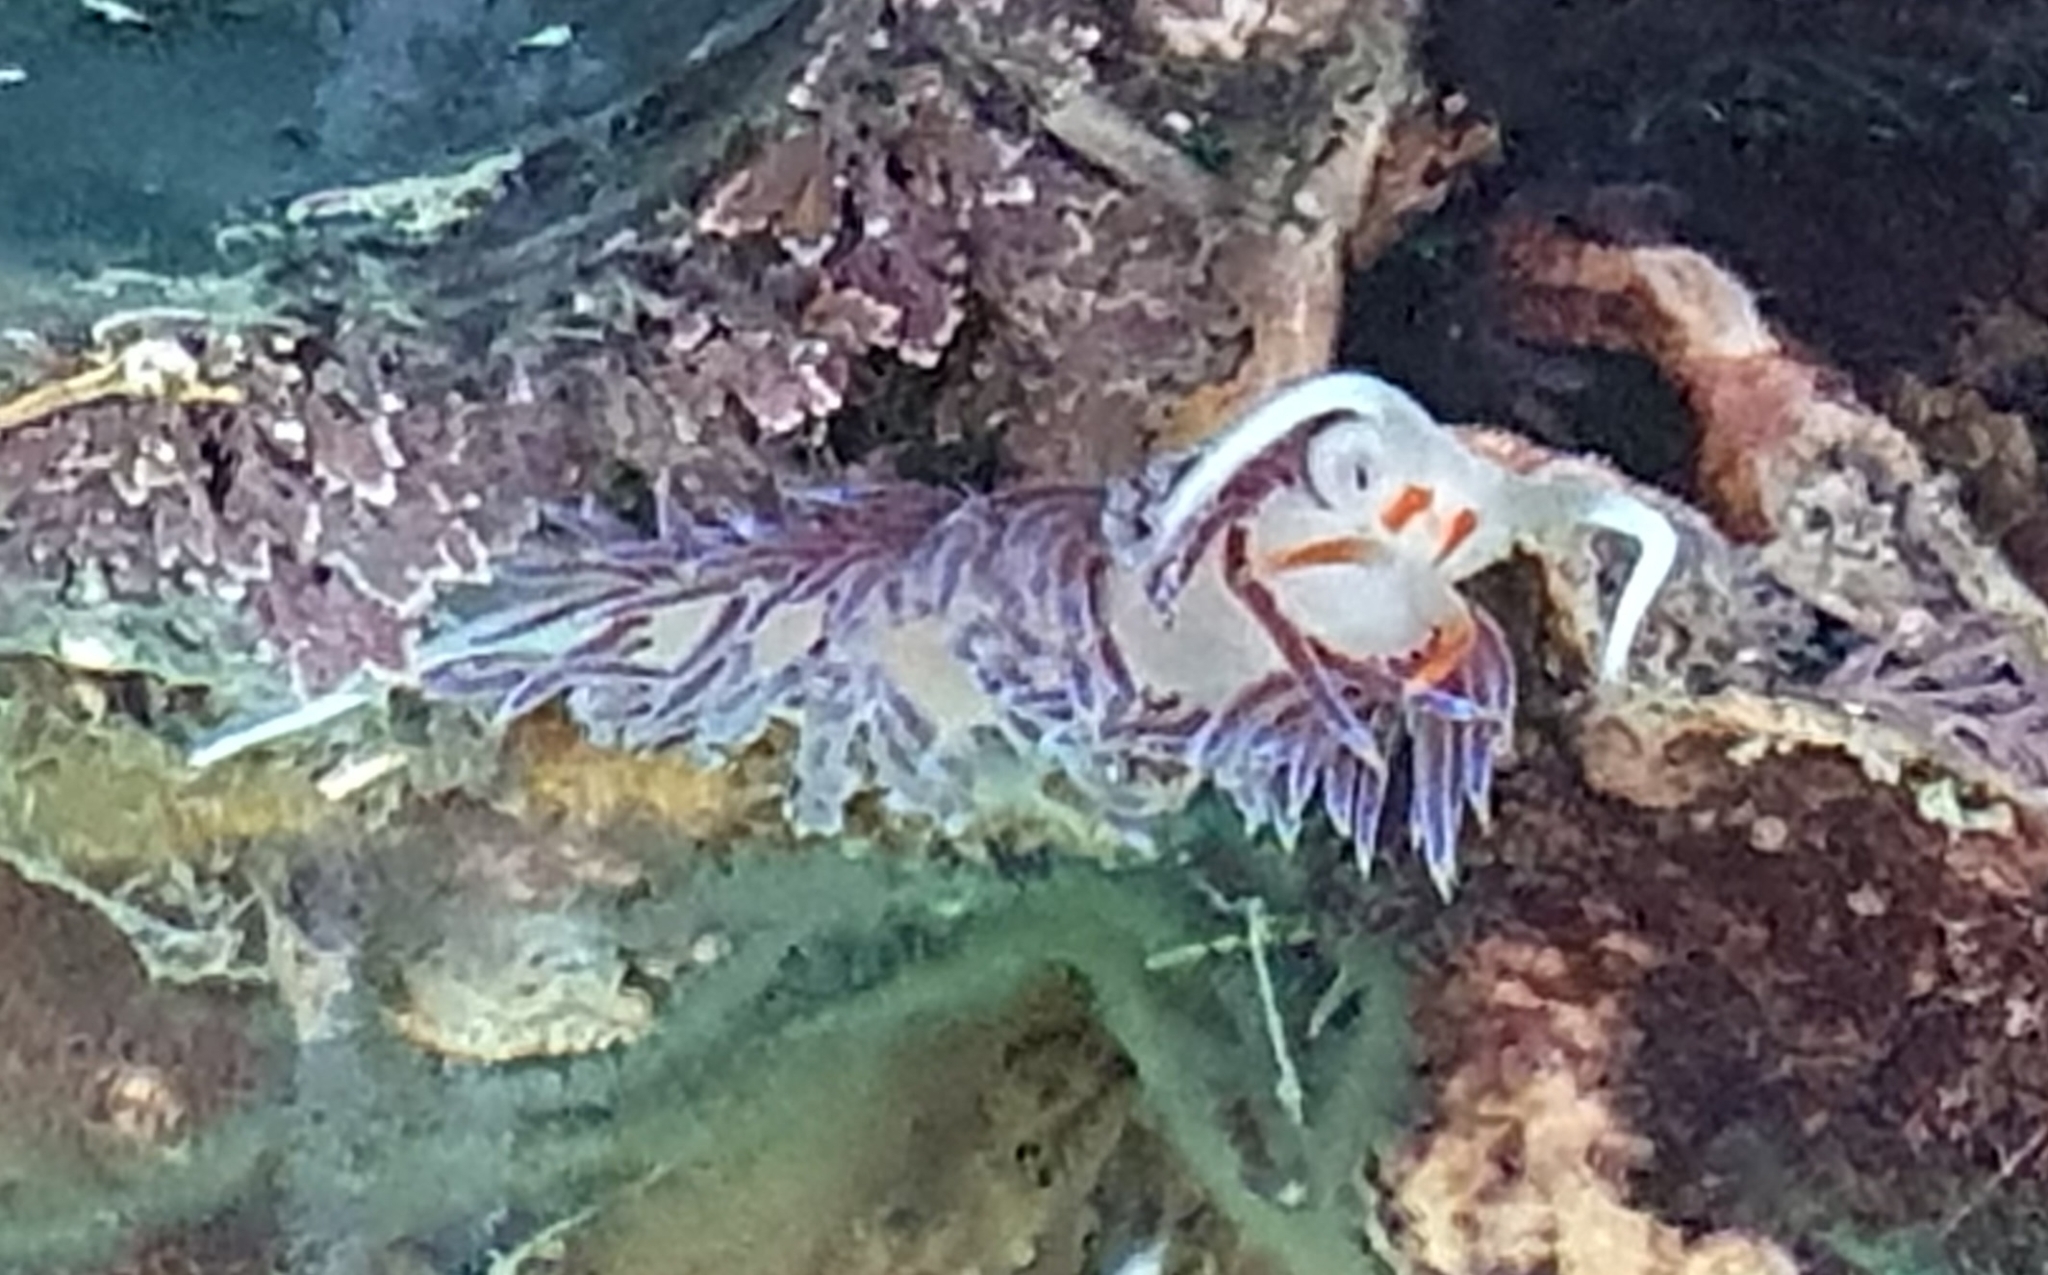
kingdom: Animalia
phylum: Mollusca
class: Gastropoda
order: Nudibranchia
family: Facelinidae
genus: Cratena
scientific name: Cratena peregrina
